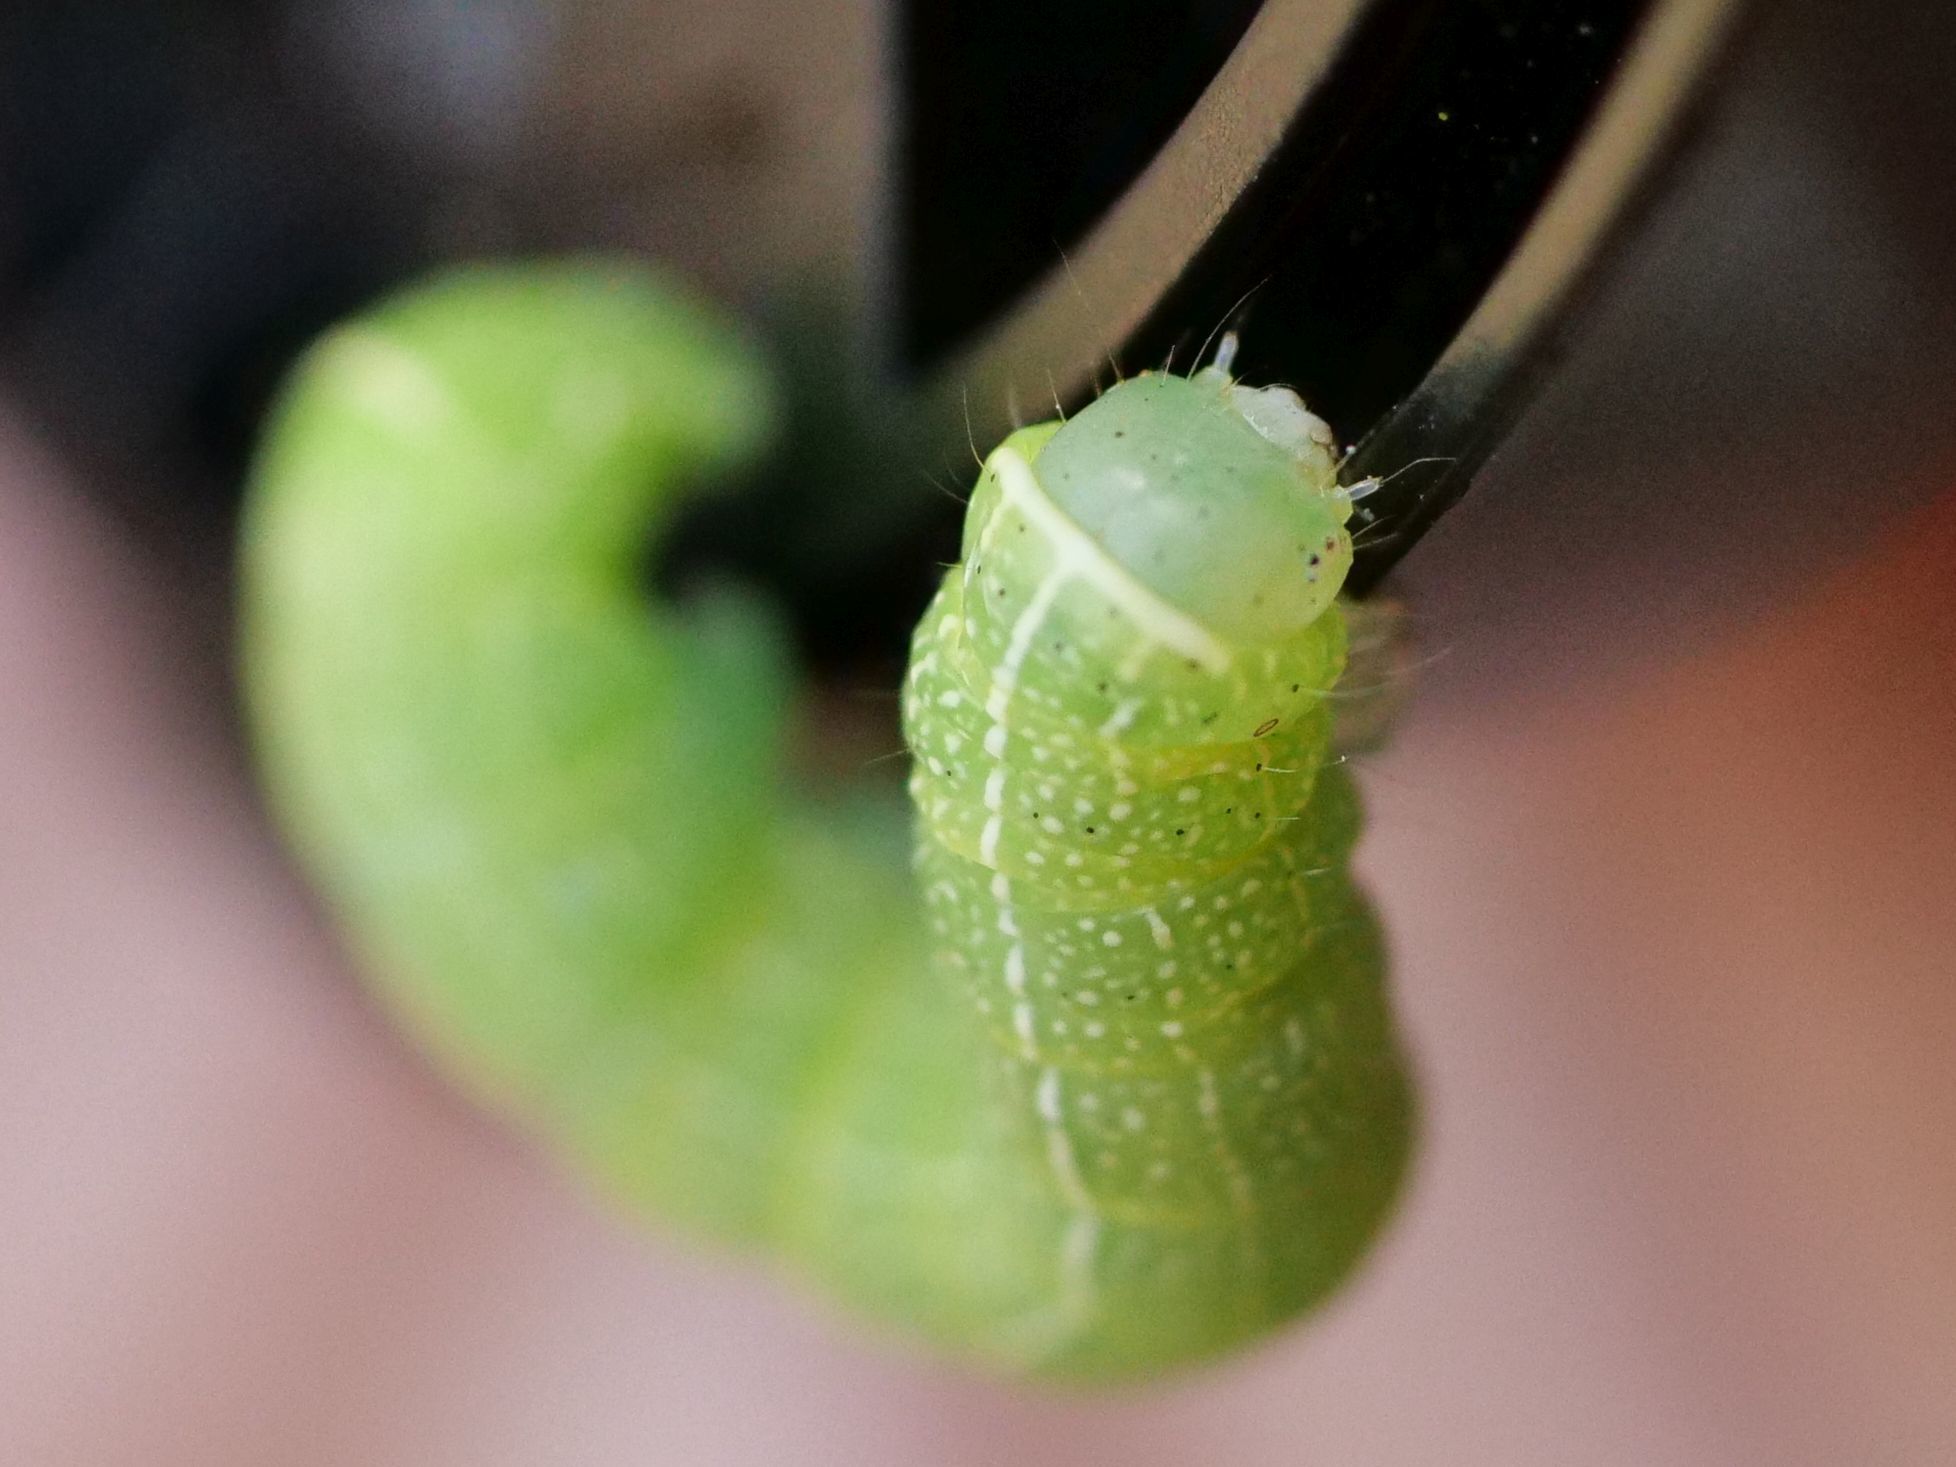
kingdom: Animalia
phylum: Arthropoda
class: Insecta
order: Lepidoptera
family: Noctuidae
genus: Orthosia
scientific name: Orthosia cerasi
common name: Common quaker
